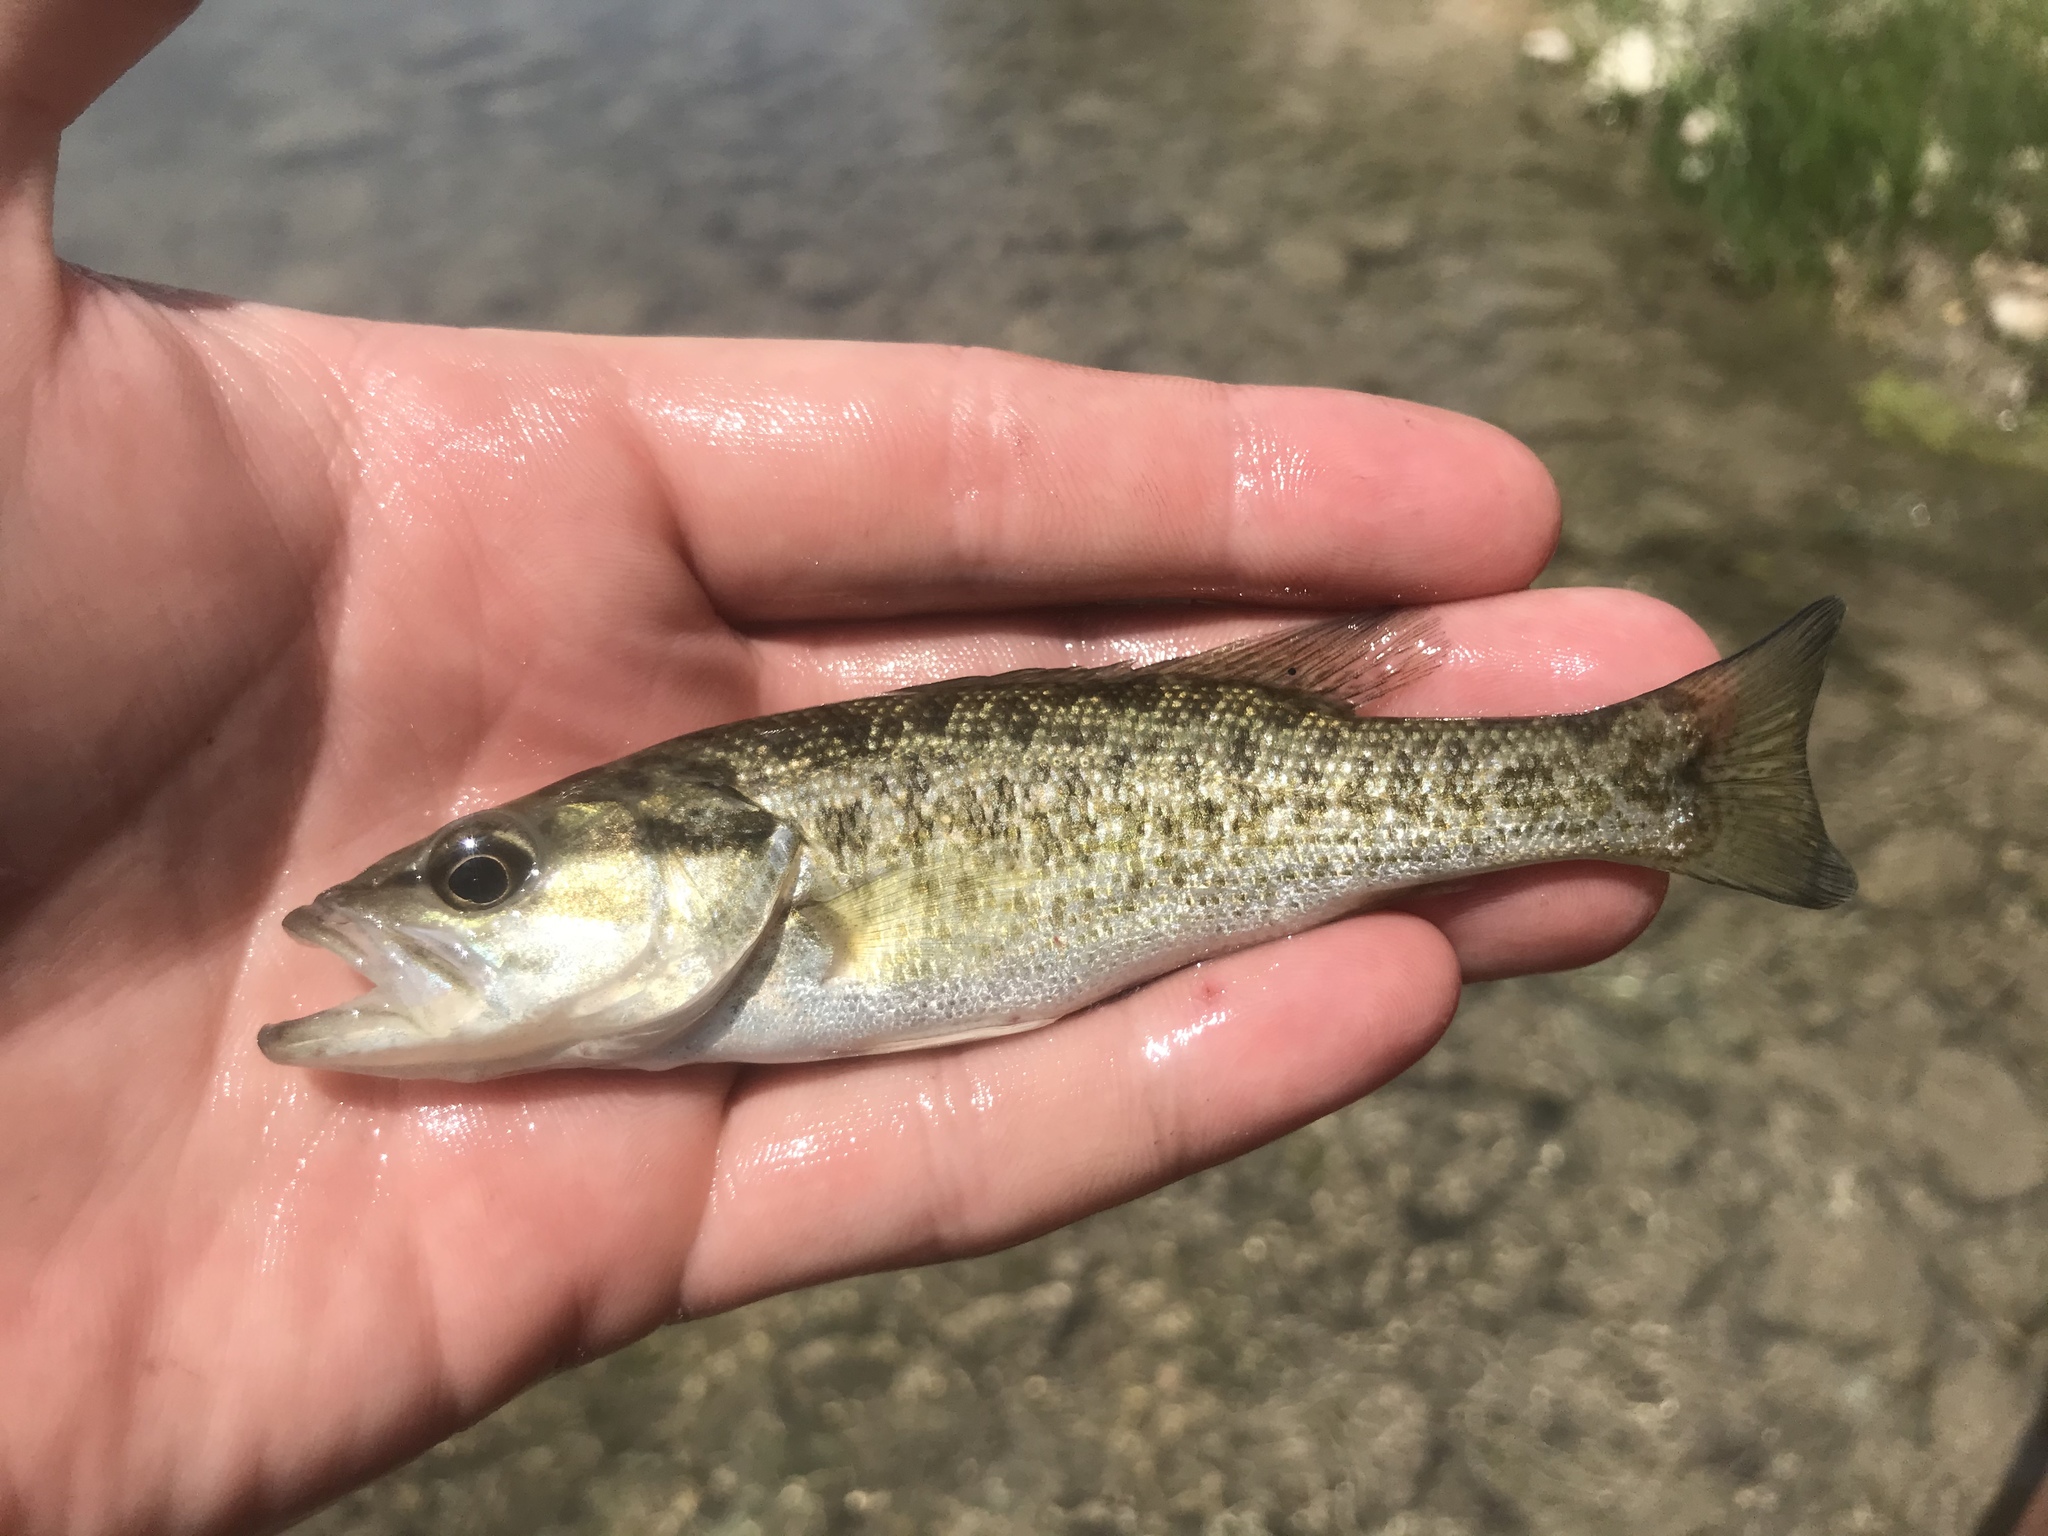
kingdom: Animalia
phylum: Chordata
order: Perciformes
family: Centrarchidae
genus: Micropterus
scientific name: Micropterus treculii
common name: Guadalupe bass
